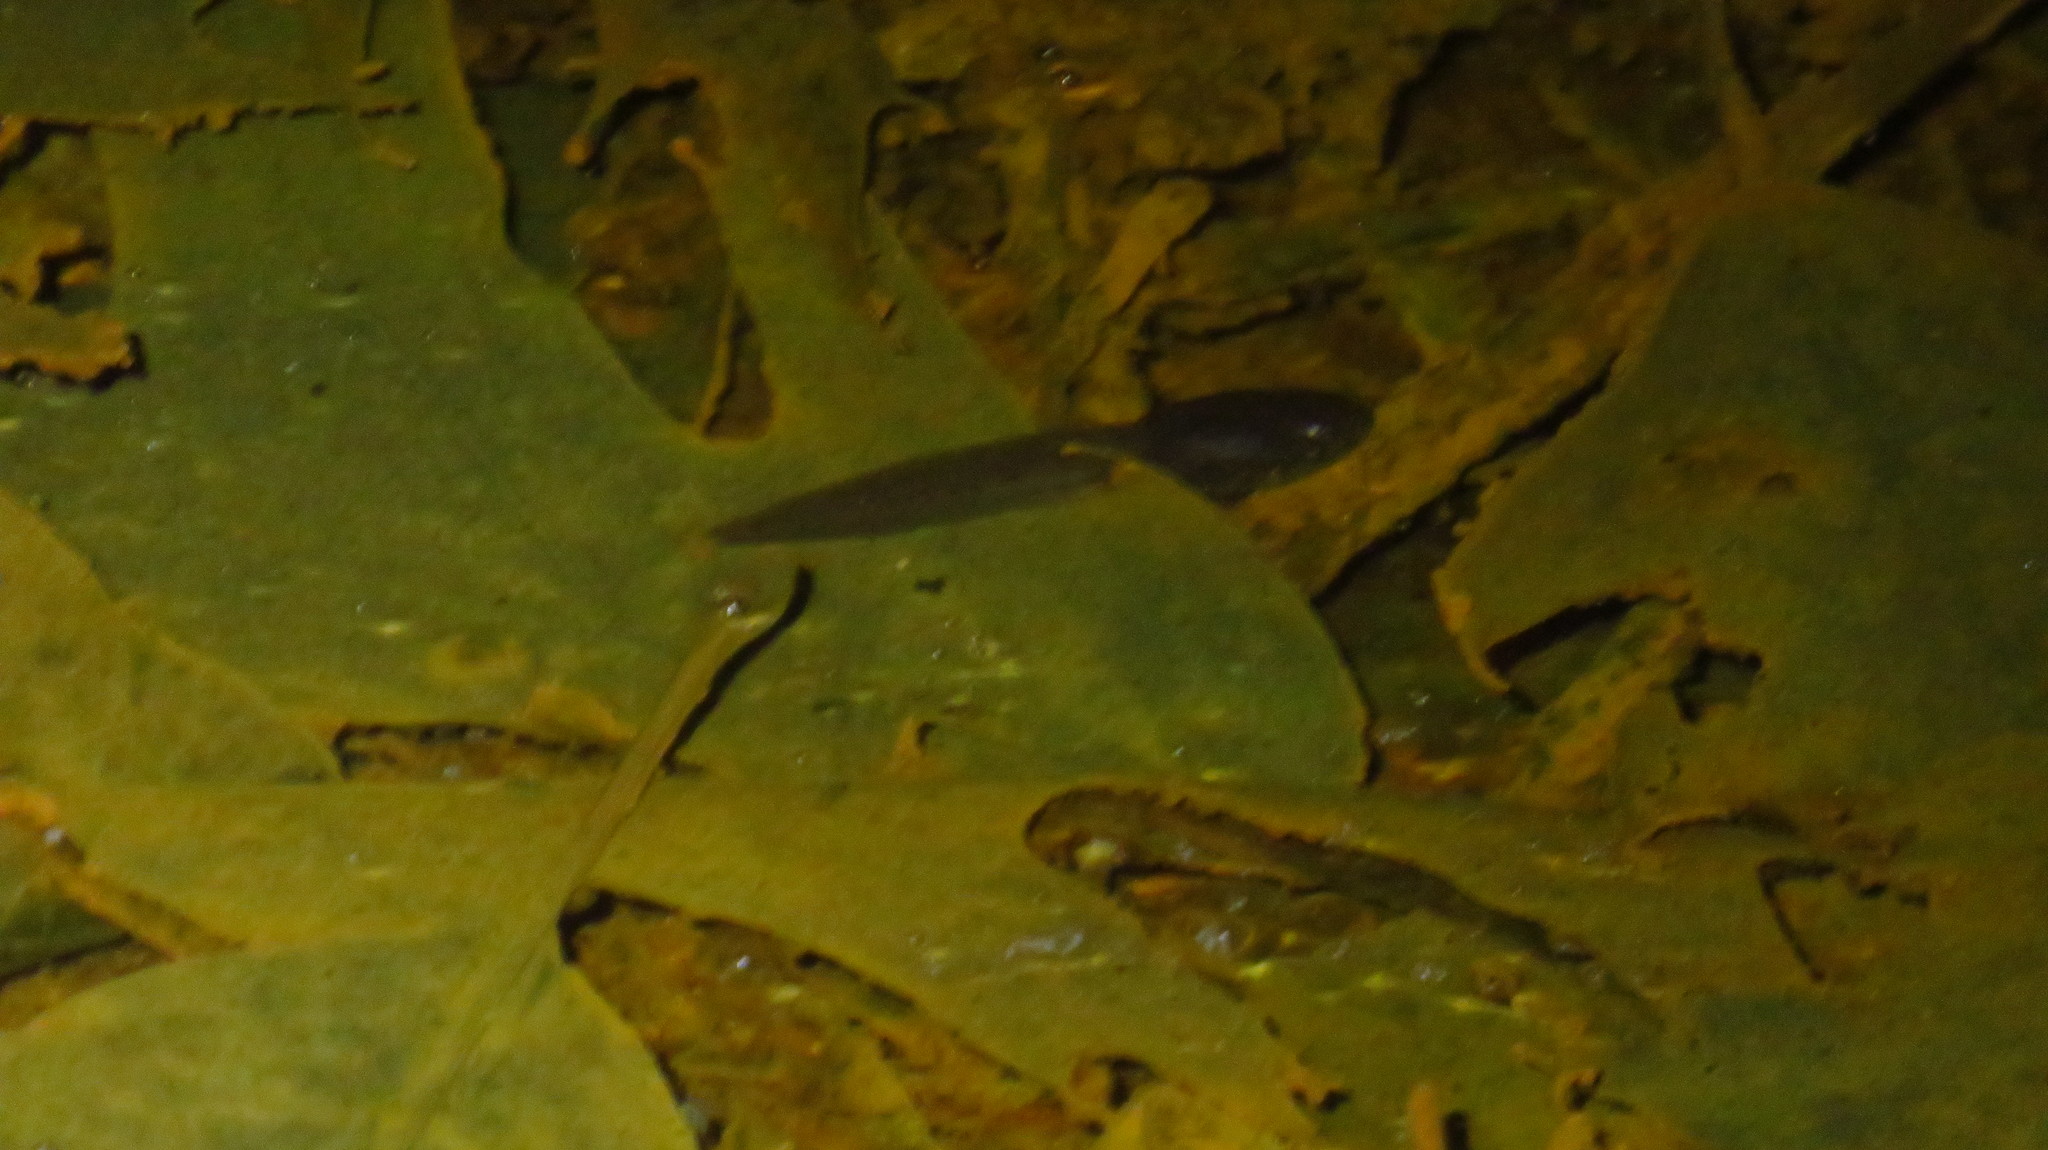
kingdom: Animalia
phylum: Chordata
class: Amphibia
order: Anura
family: Ranidae
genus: Lithobates
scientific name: Lithobates clamitans
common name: Green frog
